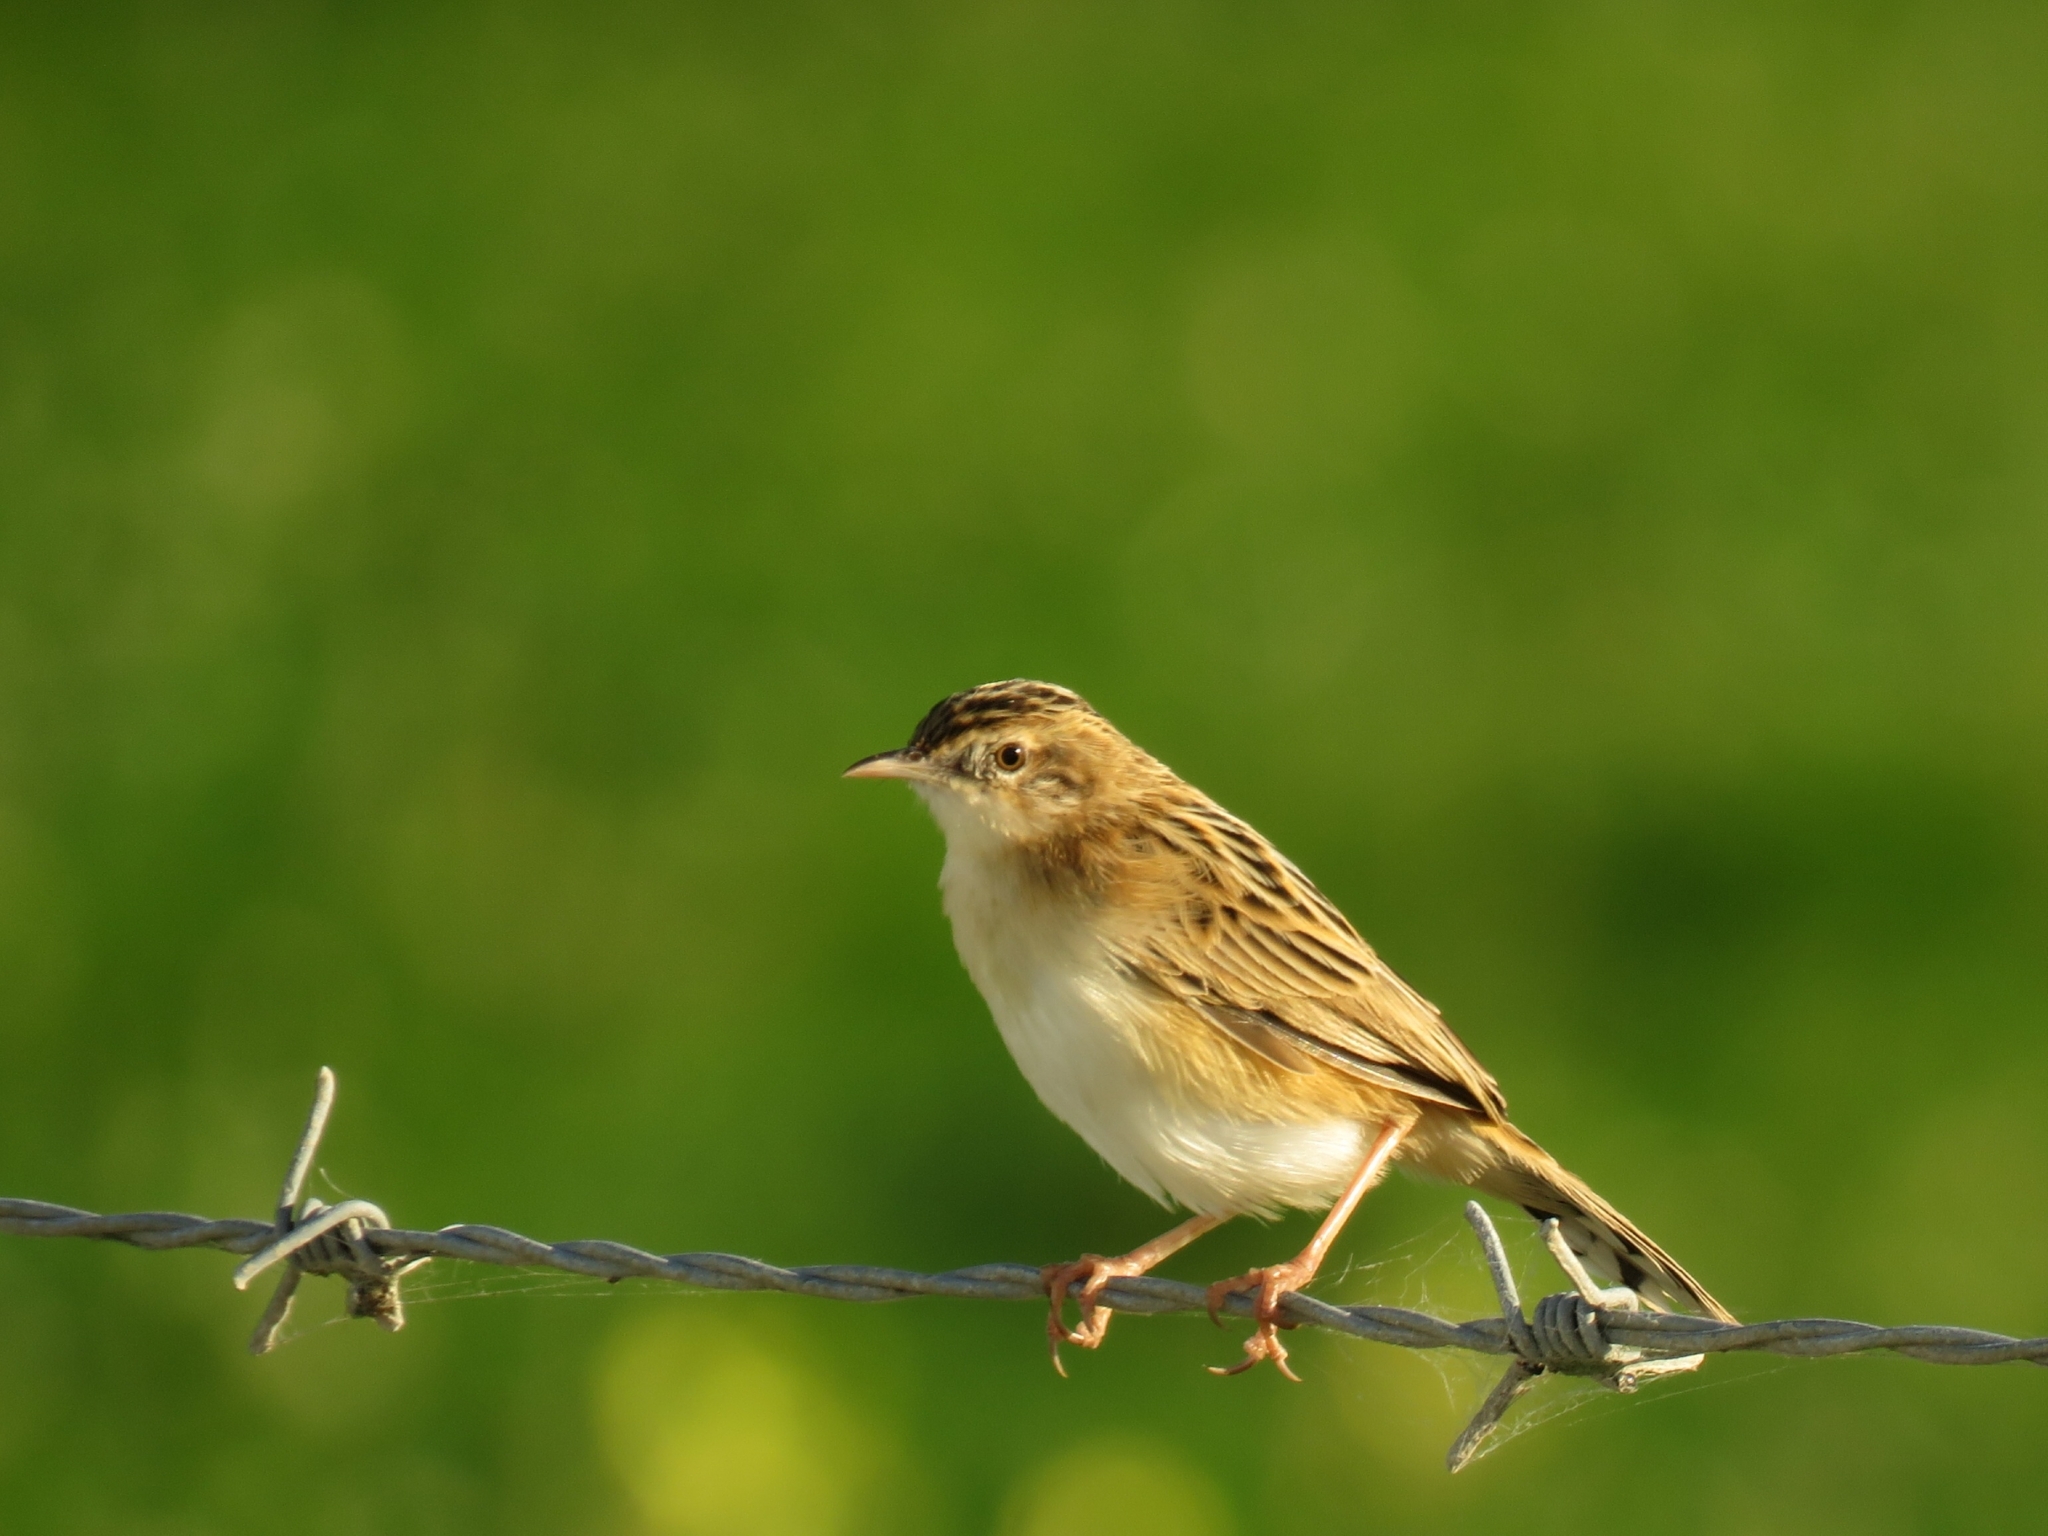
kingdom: Animalia
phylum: Chordata
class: Aves
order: Passeriformes
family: Cisticolidae
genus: Cisticola
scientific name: Cisticola juncidis
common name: Zitting cisticola
